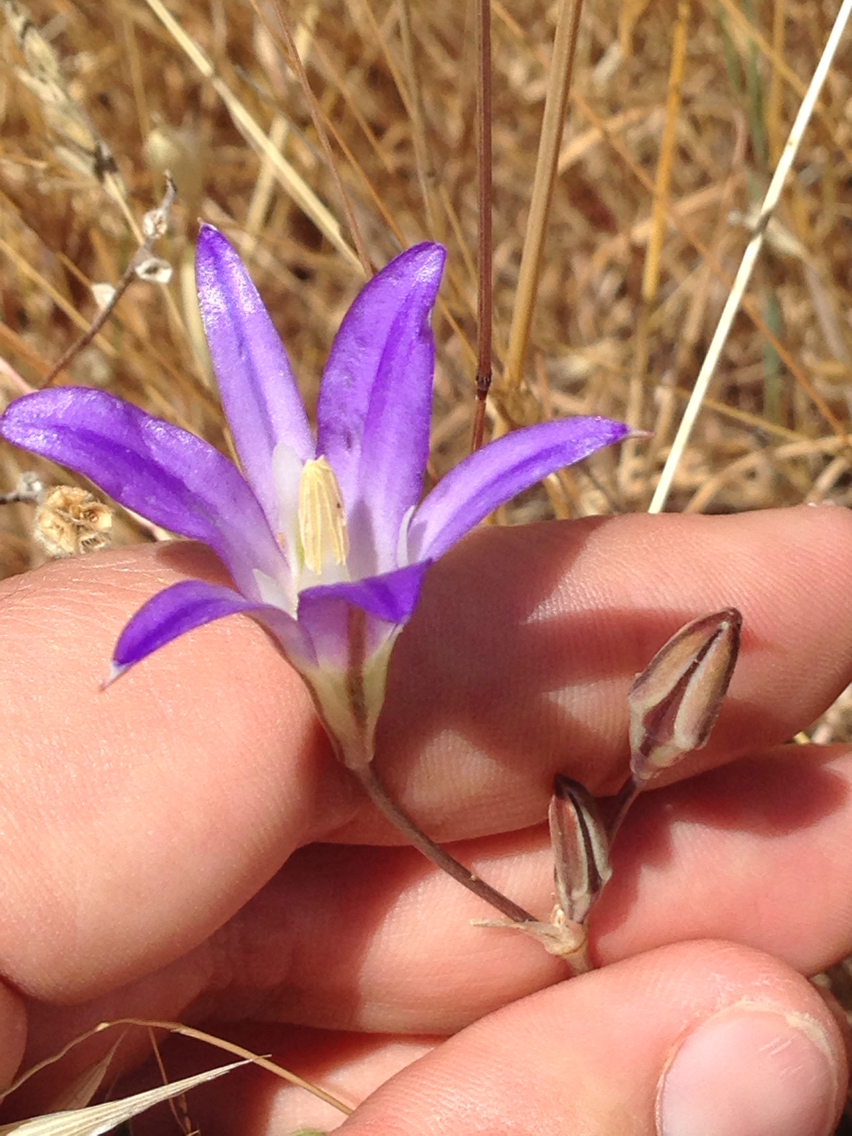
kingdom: Plantae
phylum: Tracheophyta
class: Liliopsida
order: Asparagales
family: Asparagaceae
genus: Brodiaea
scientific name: Brodiaea elegans
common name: Elegant cluster-lily
